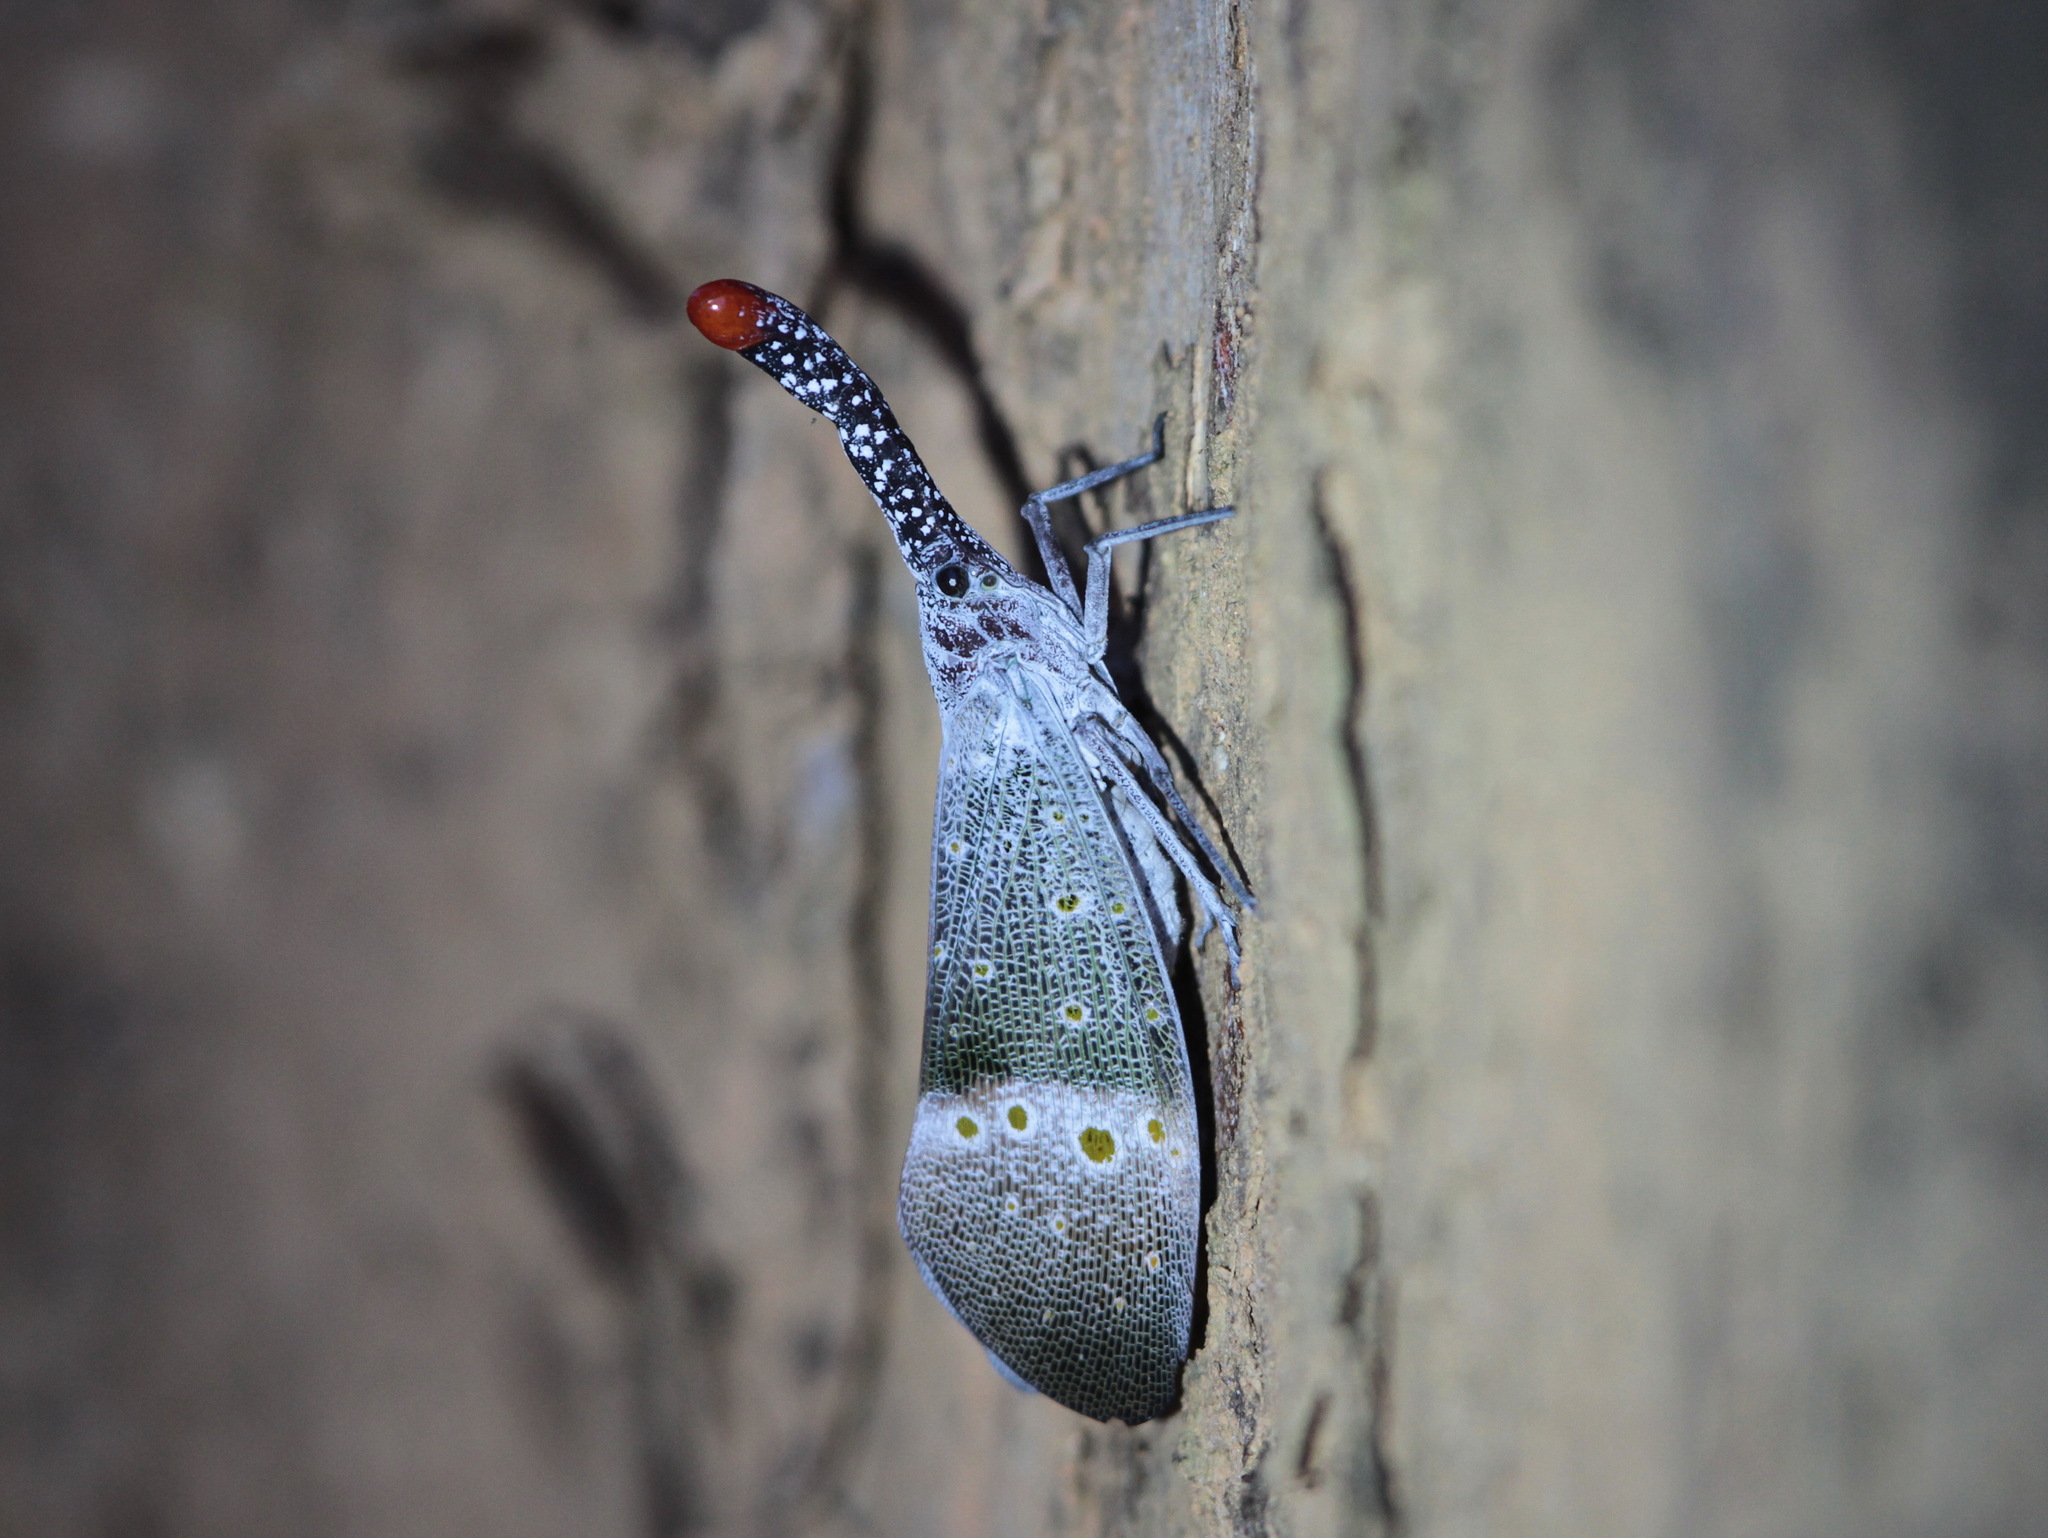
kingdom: Animalia
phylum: Arthropoda
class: Insecta
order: Hemiptera
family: Fulgoridae
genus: Pyrops
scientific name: Pyrops pyrorhynchus
